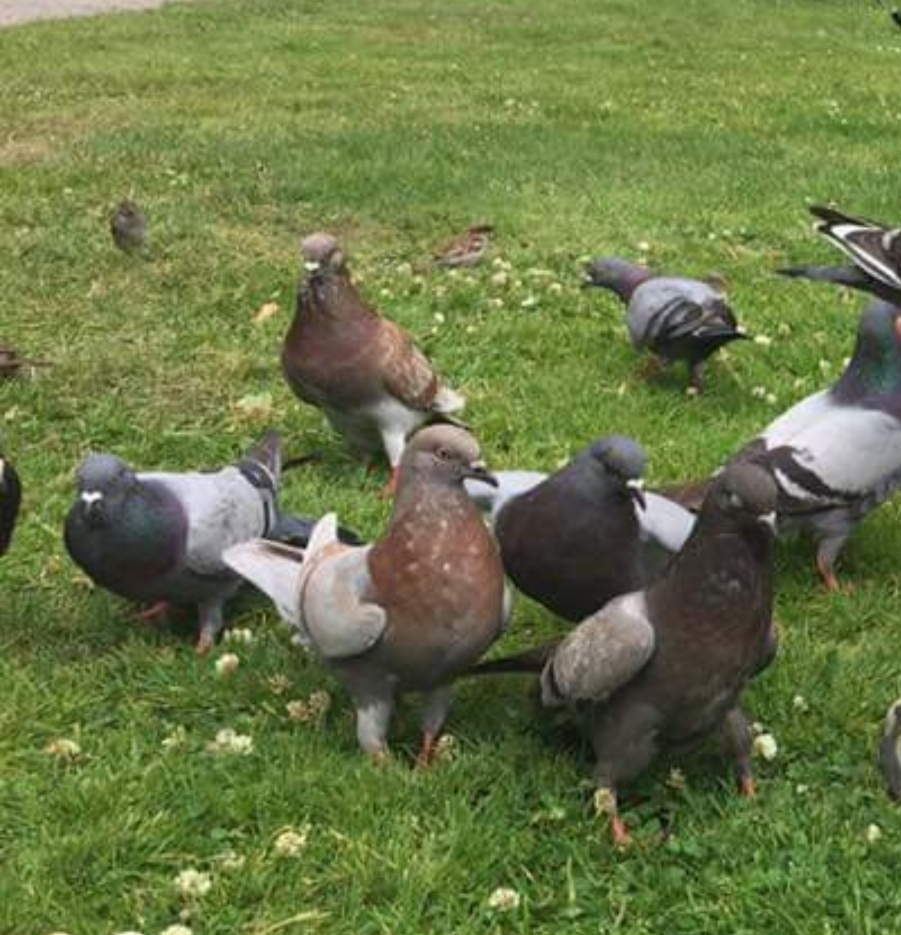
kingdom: Animalia
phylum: Chordata
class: Aves
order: Columbiformes
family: Columbidae
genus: Columba
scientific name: Columba livia
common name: Rock pigeon
